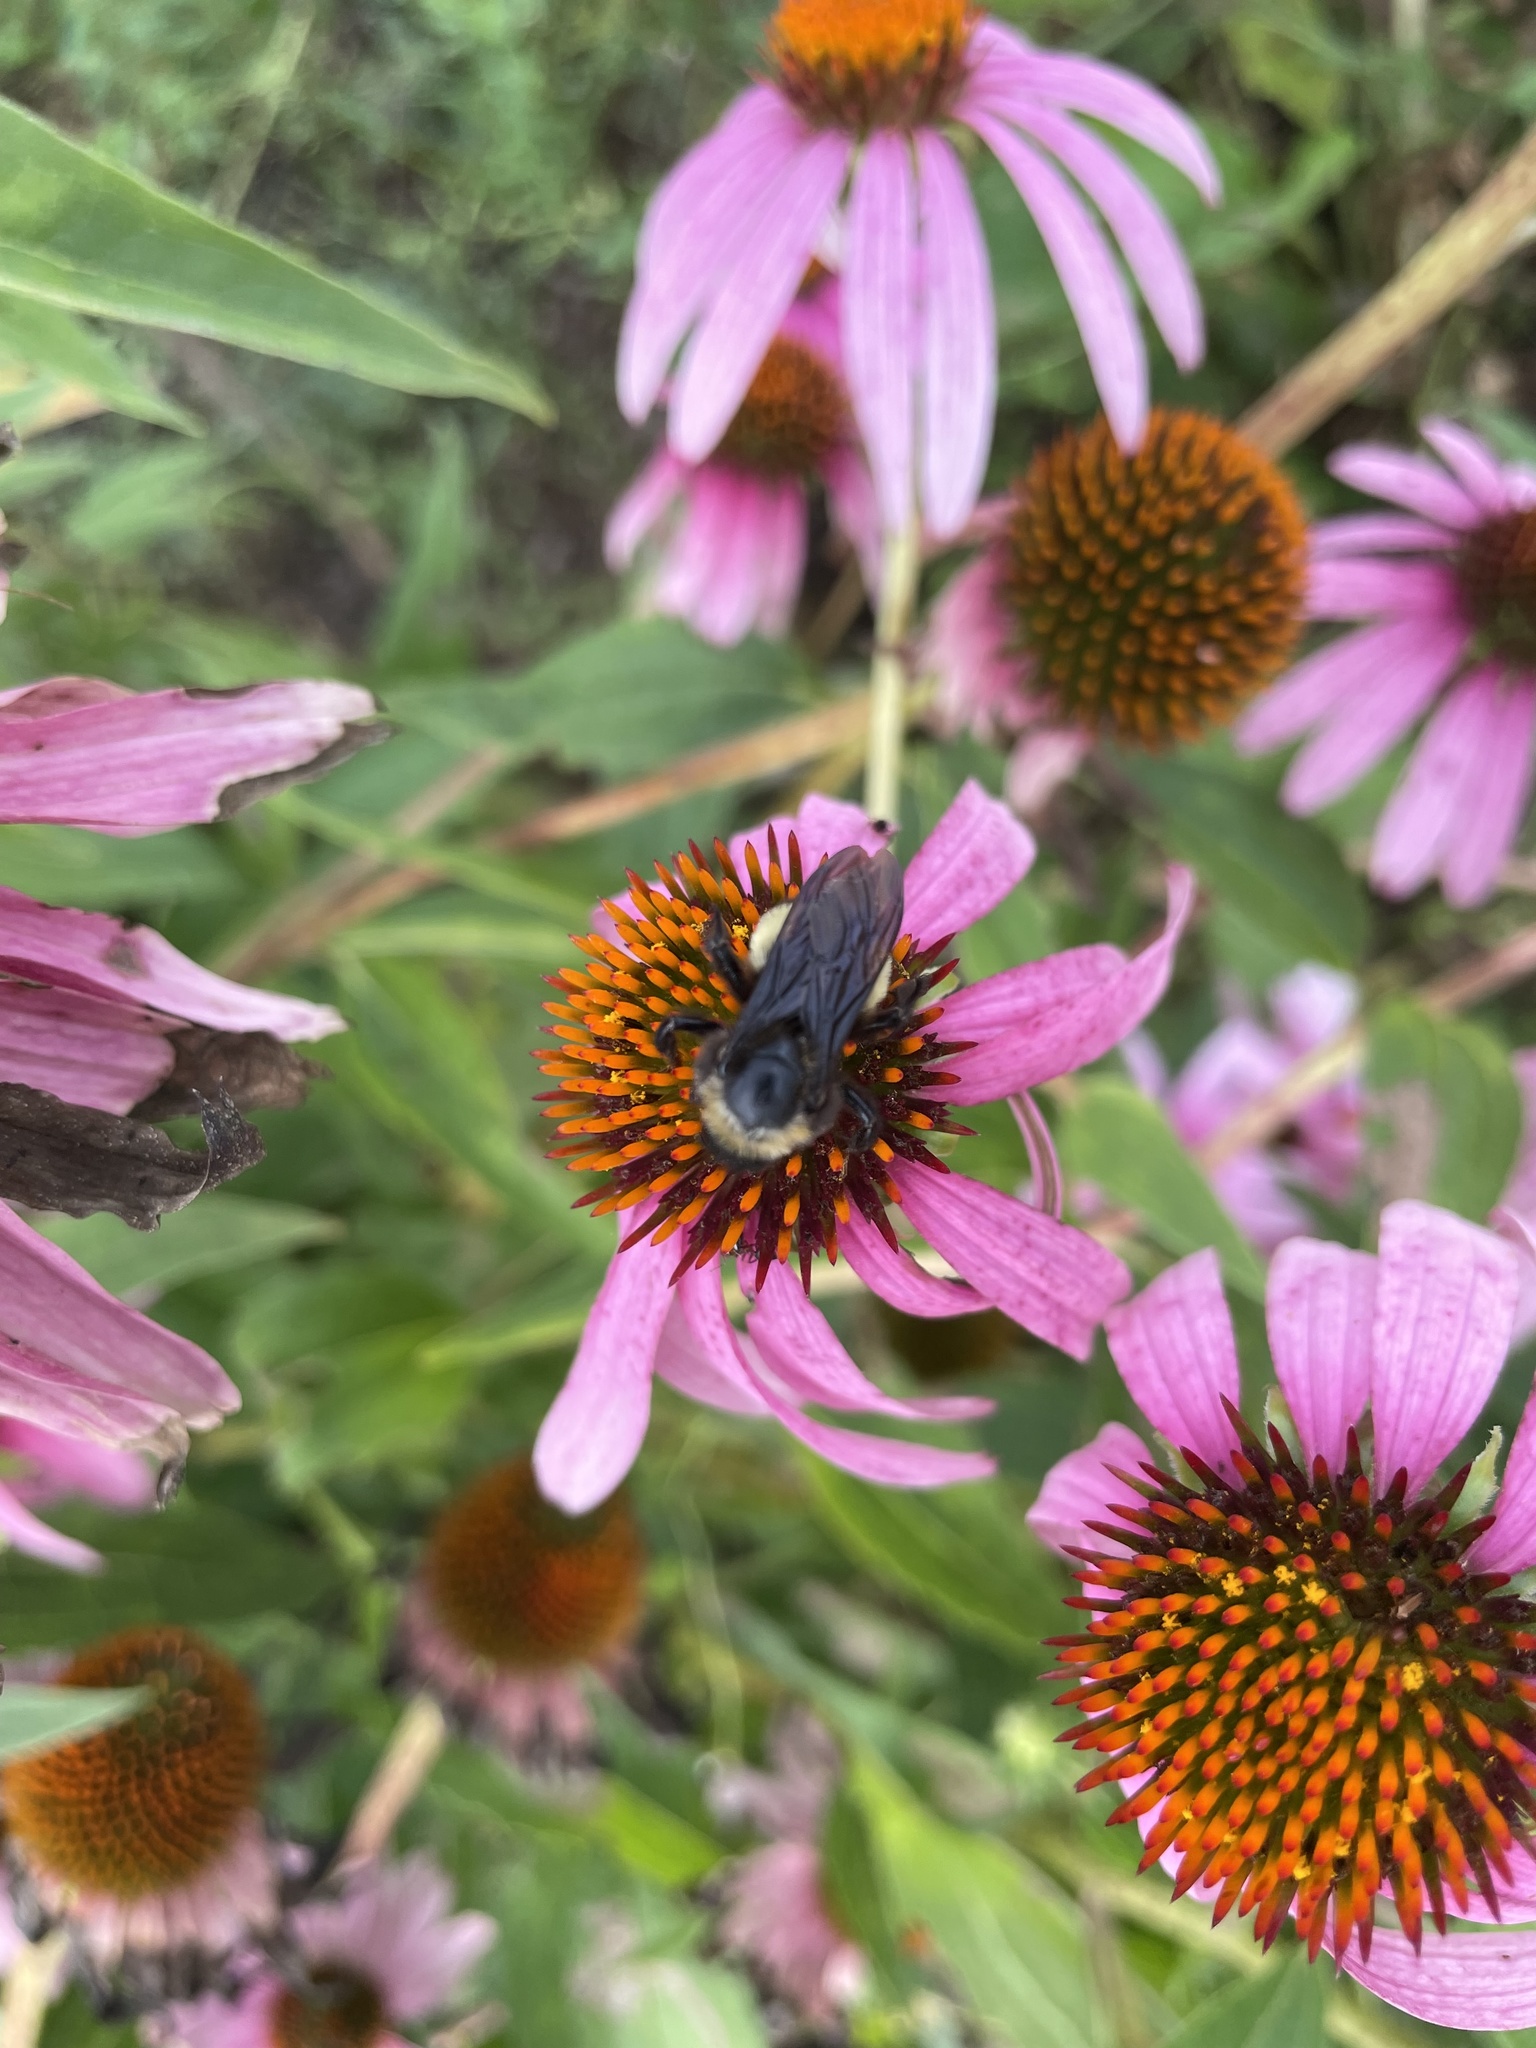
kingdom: Animalia
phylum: Arthropoda
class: Insecta
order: Hymenoptera
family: Apidae
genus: Bombus
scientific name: Bombus pensylvanicus
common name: Bumble bee
